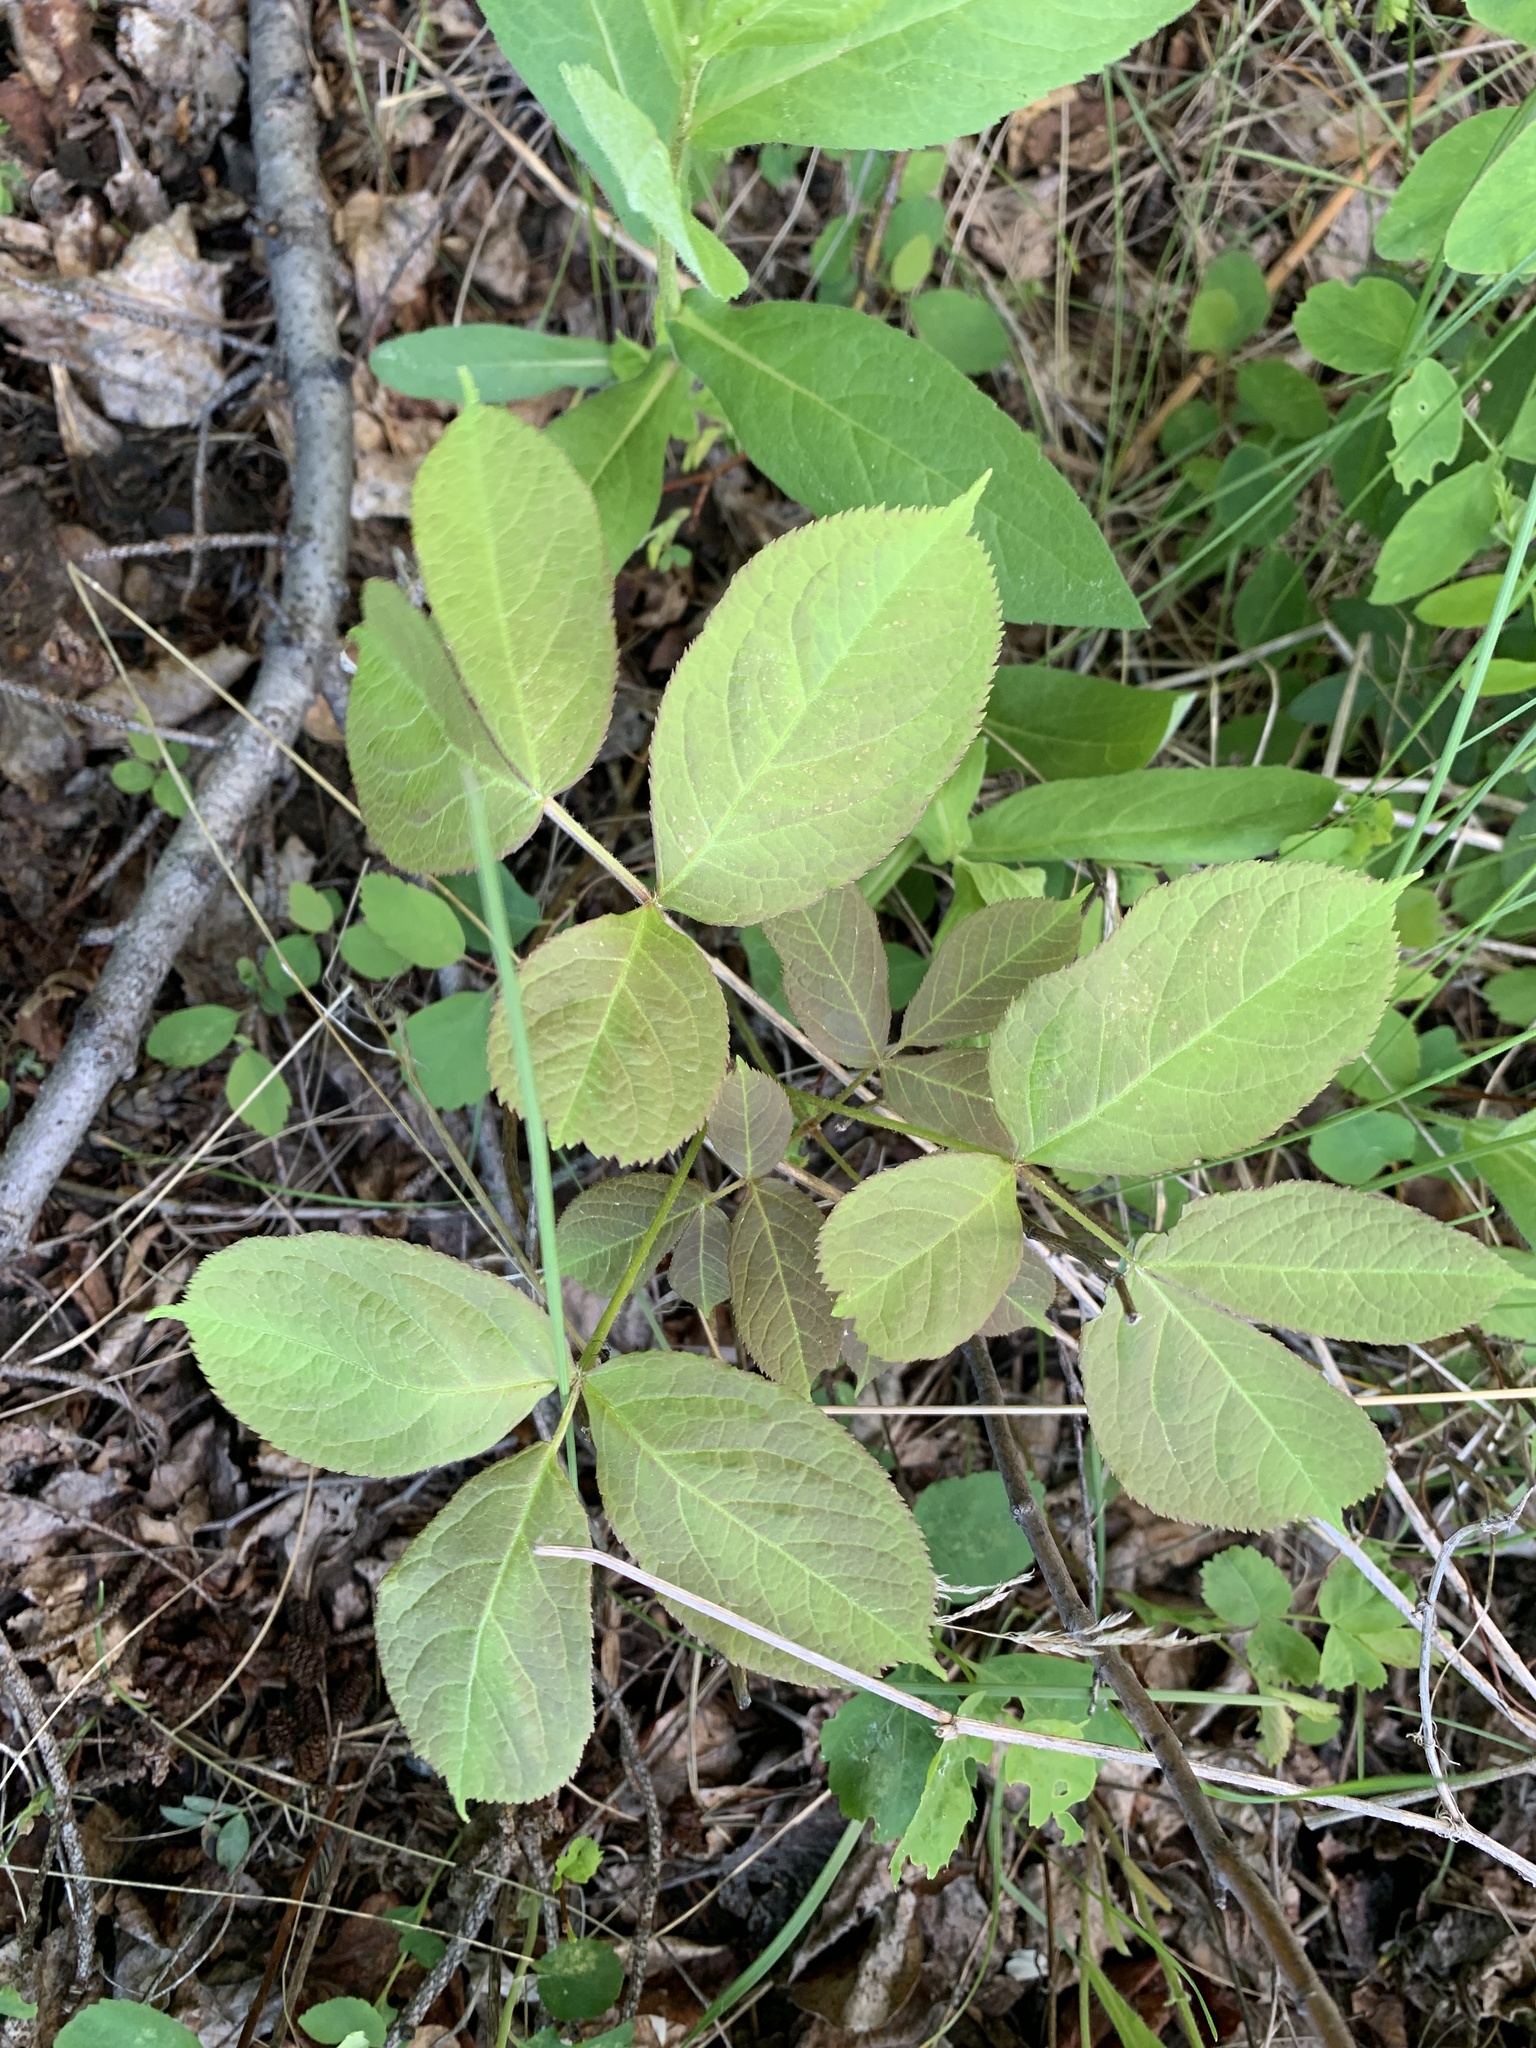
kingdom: Plantae
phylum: Tracheophyta
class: Magnoliopsida
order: Apiales
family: Araliaceae
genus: Aralia
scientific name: Aralia nudicaulis
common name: Wild sarsaparilla
